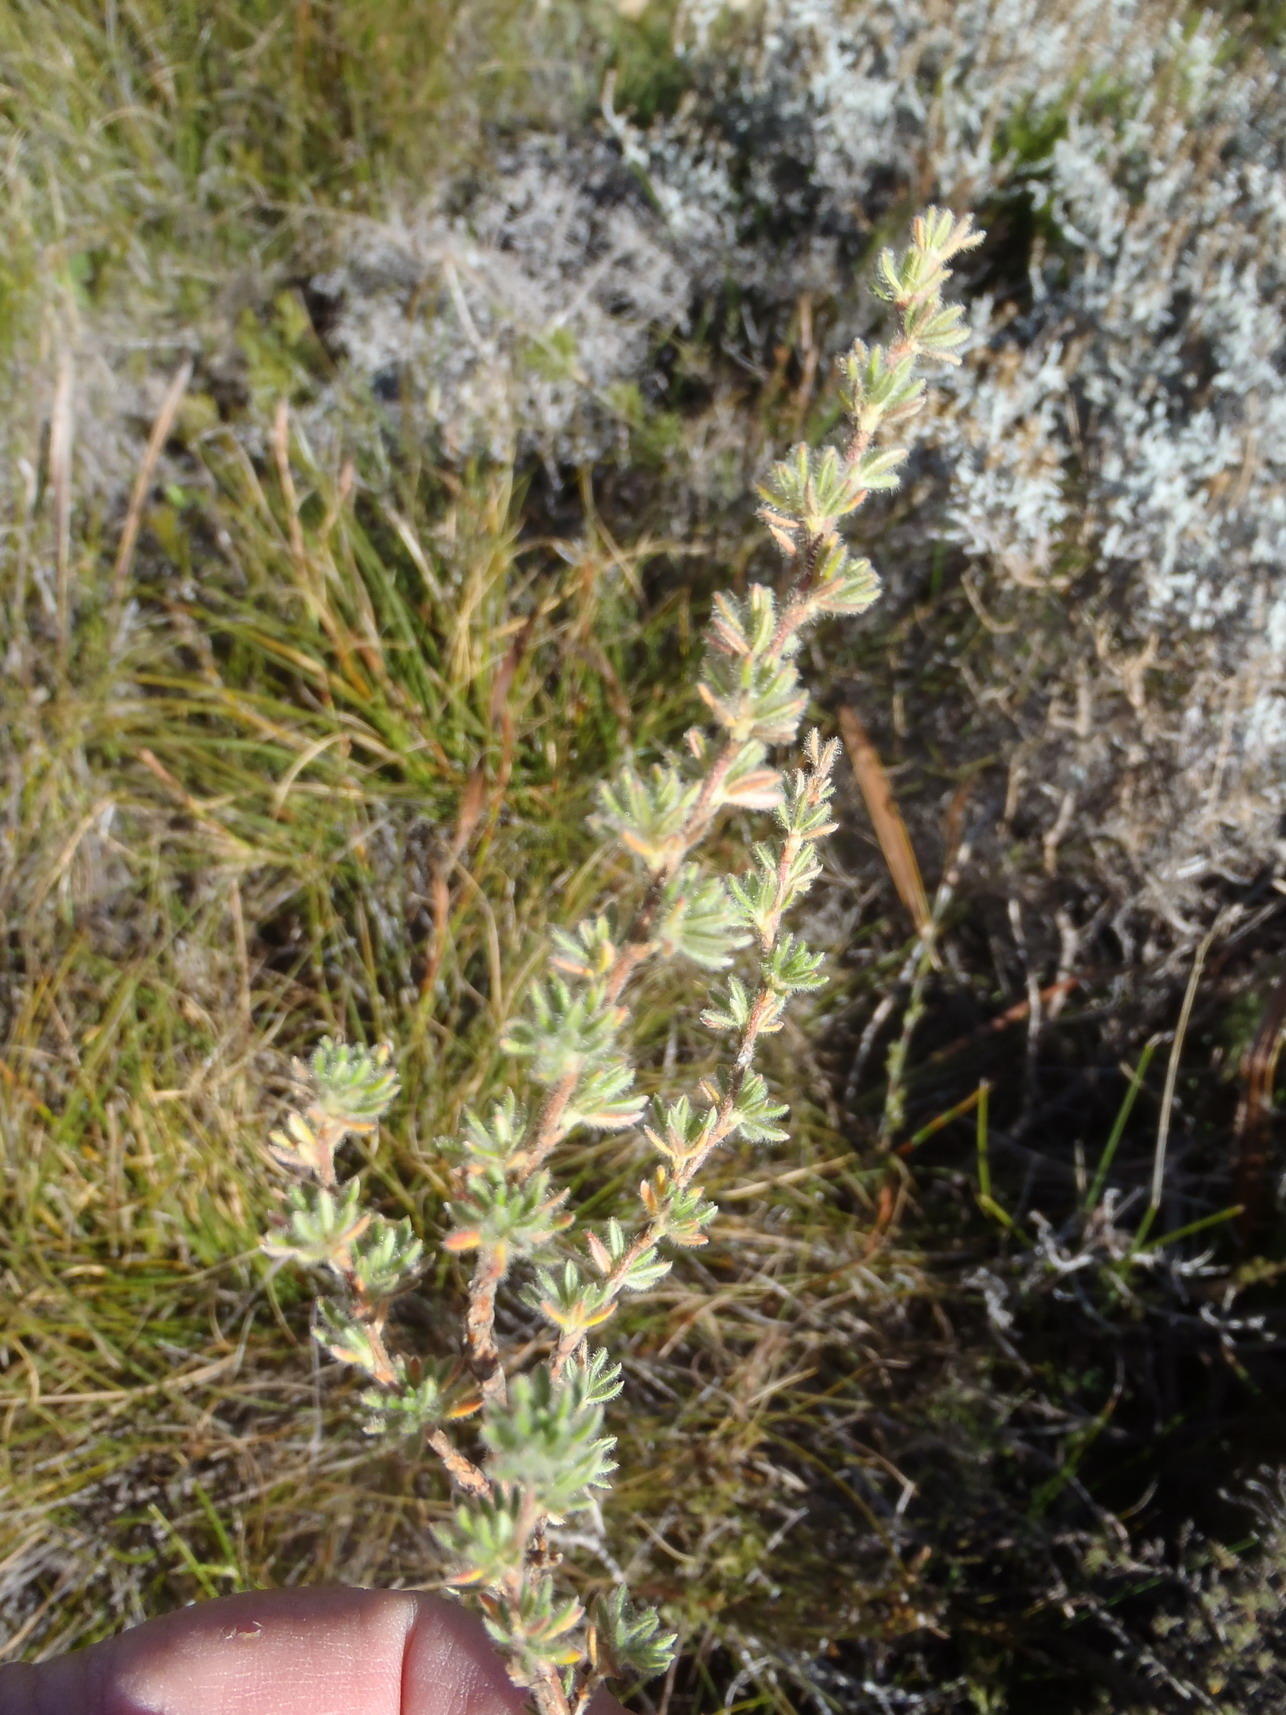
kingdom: Plantae
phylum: Tracheophyta
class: Magnoliopsida
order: Rosales
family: Rosaceae
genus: Cliffortia
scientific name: Cliffortia eriocephalina
